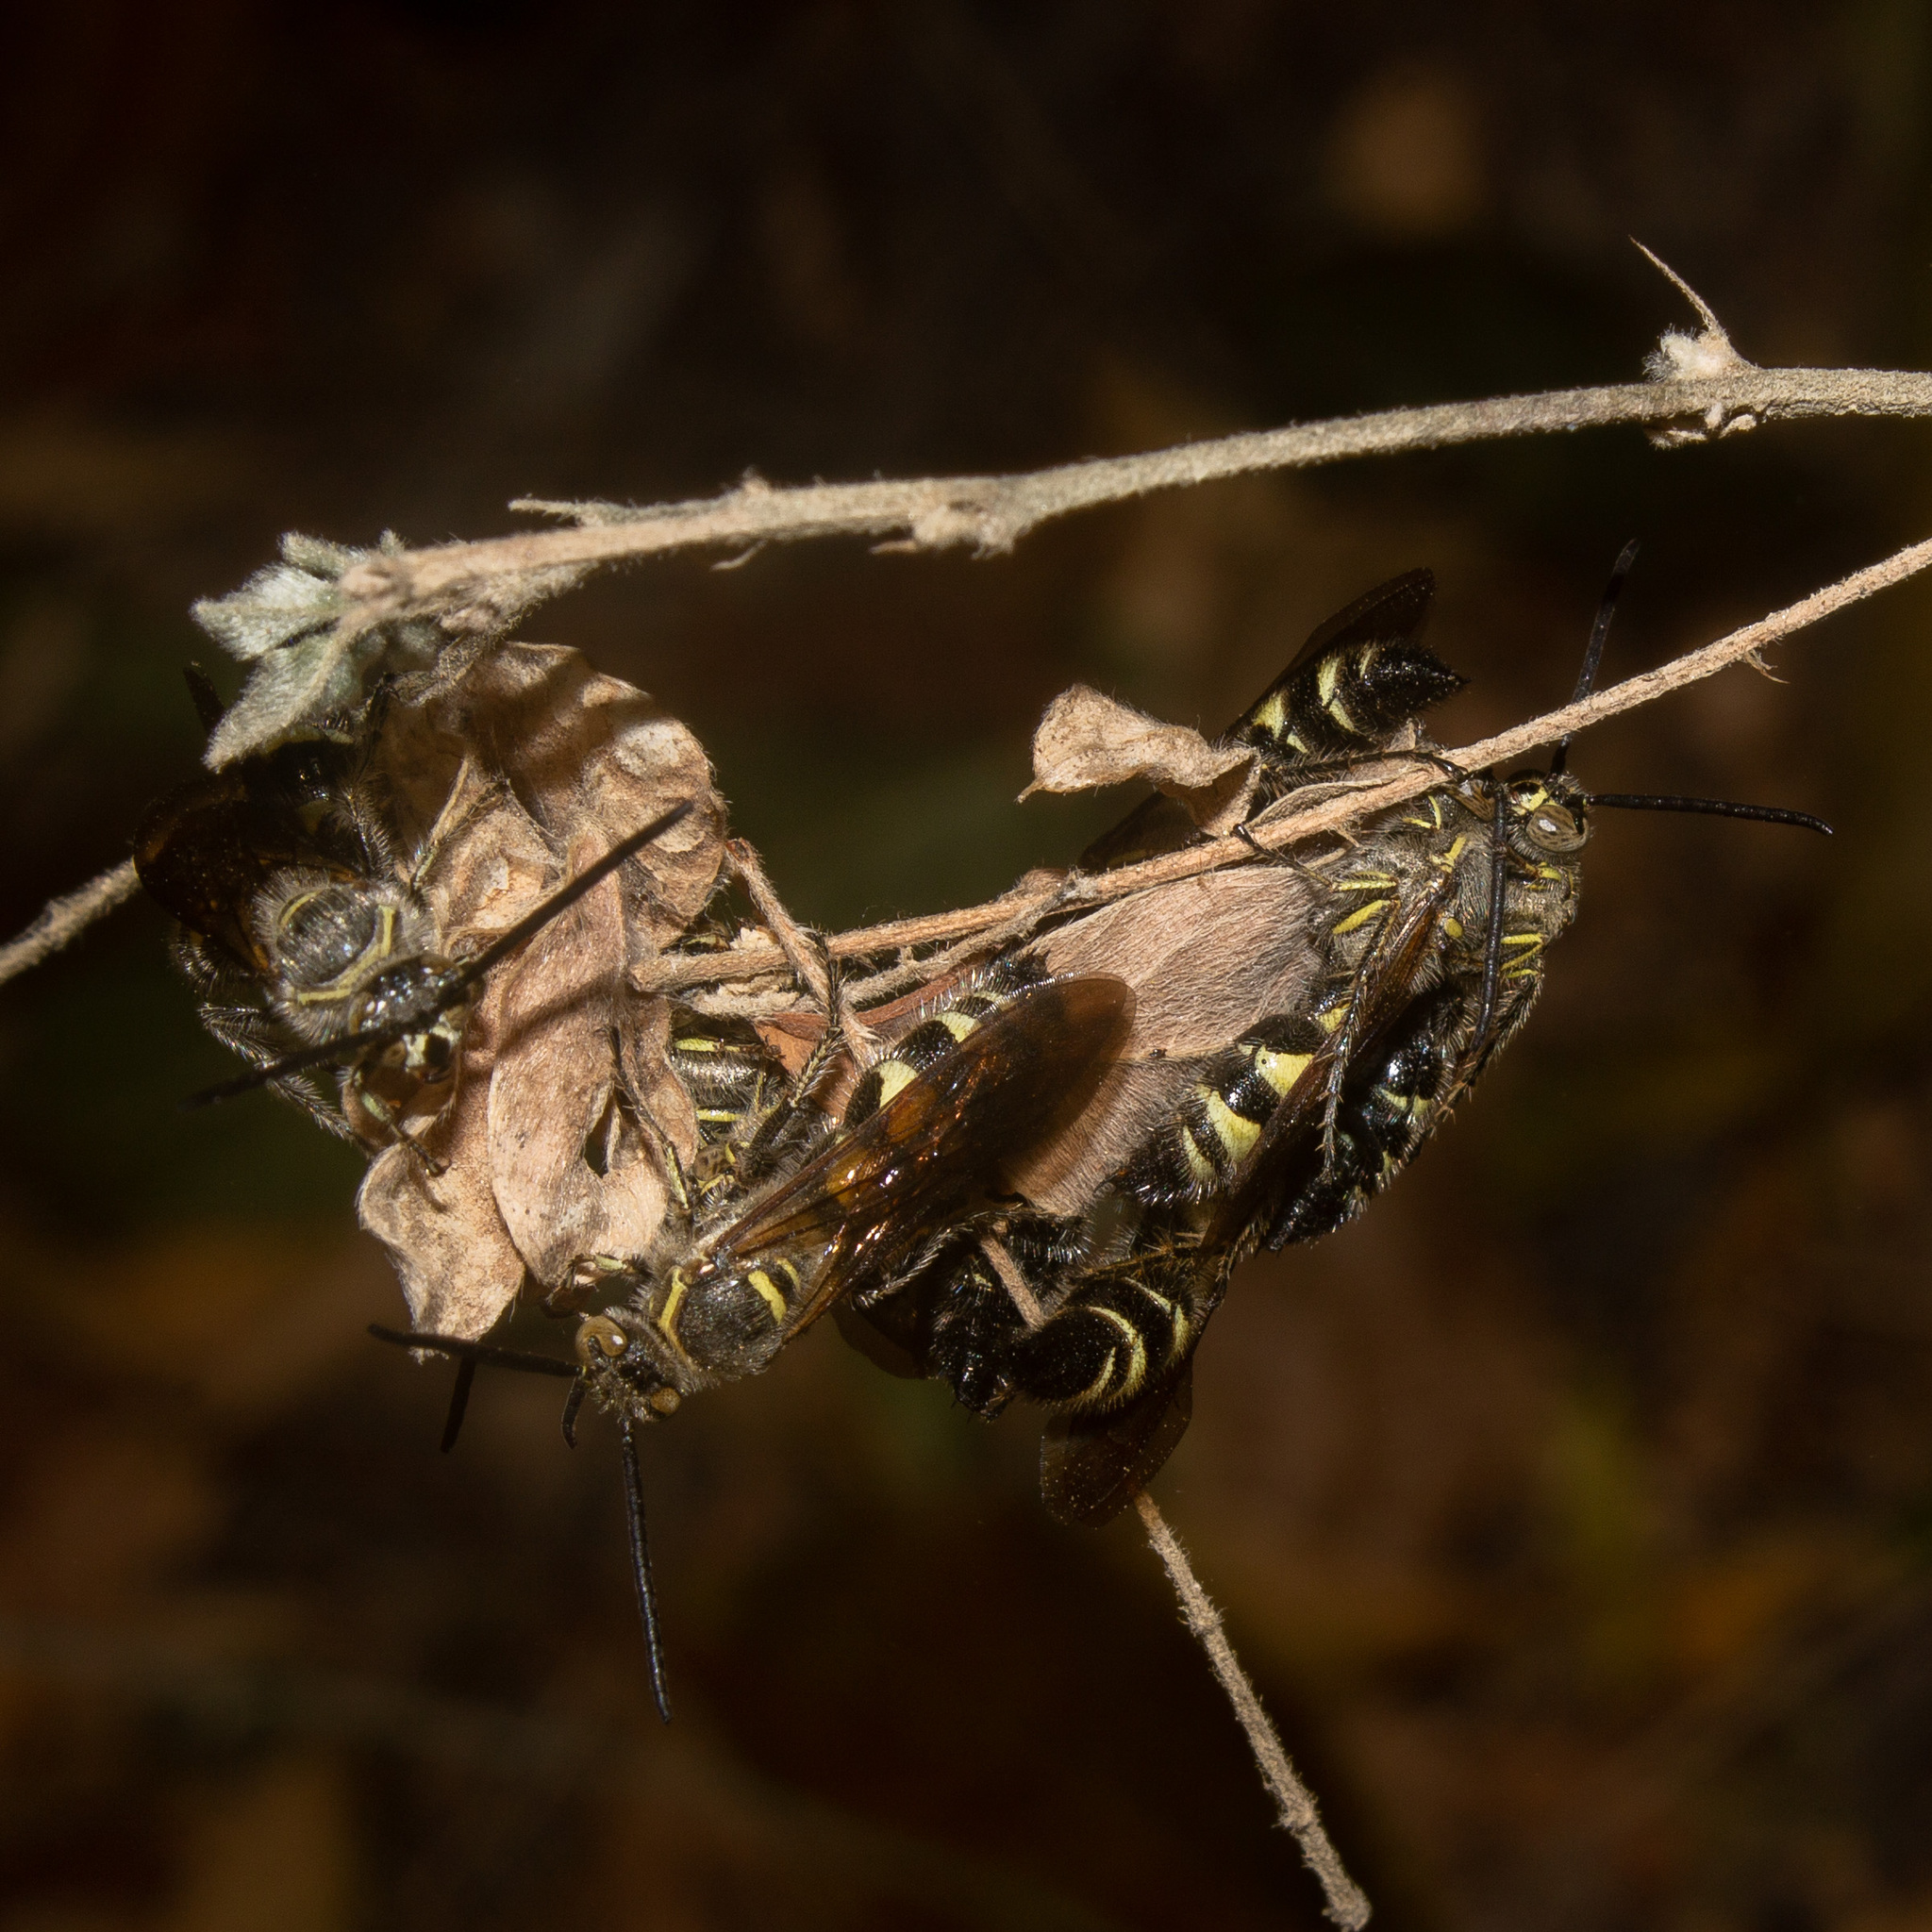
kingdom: Animalia
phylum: Arthropoda
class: Insecta
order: Hymenoptera
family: Scoliidae
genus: Dielis
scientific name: Dielis dorsata
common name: Scoliid wasp
